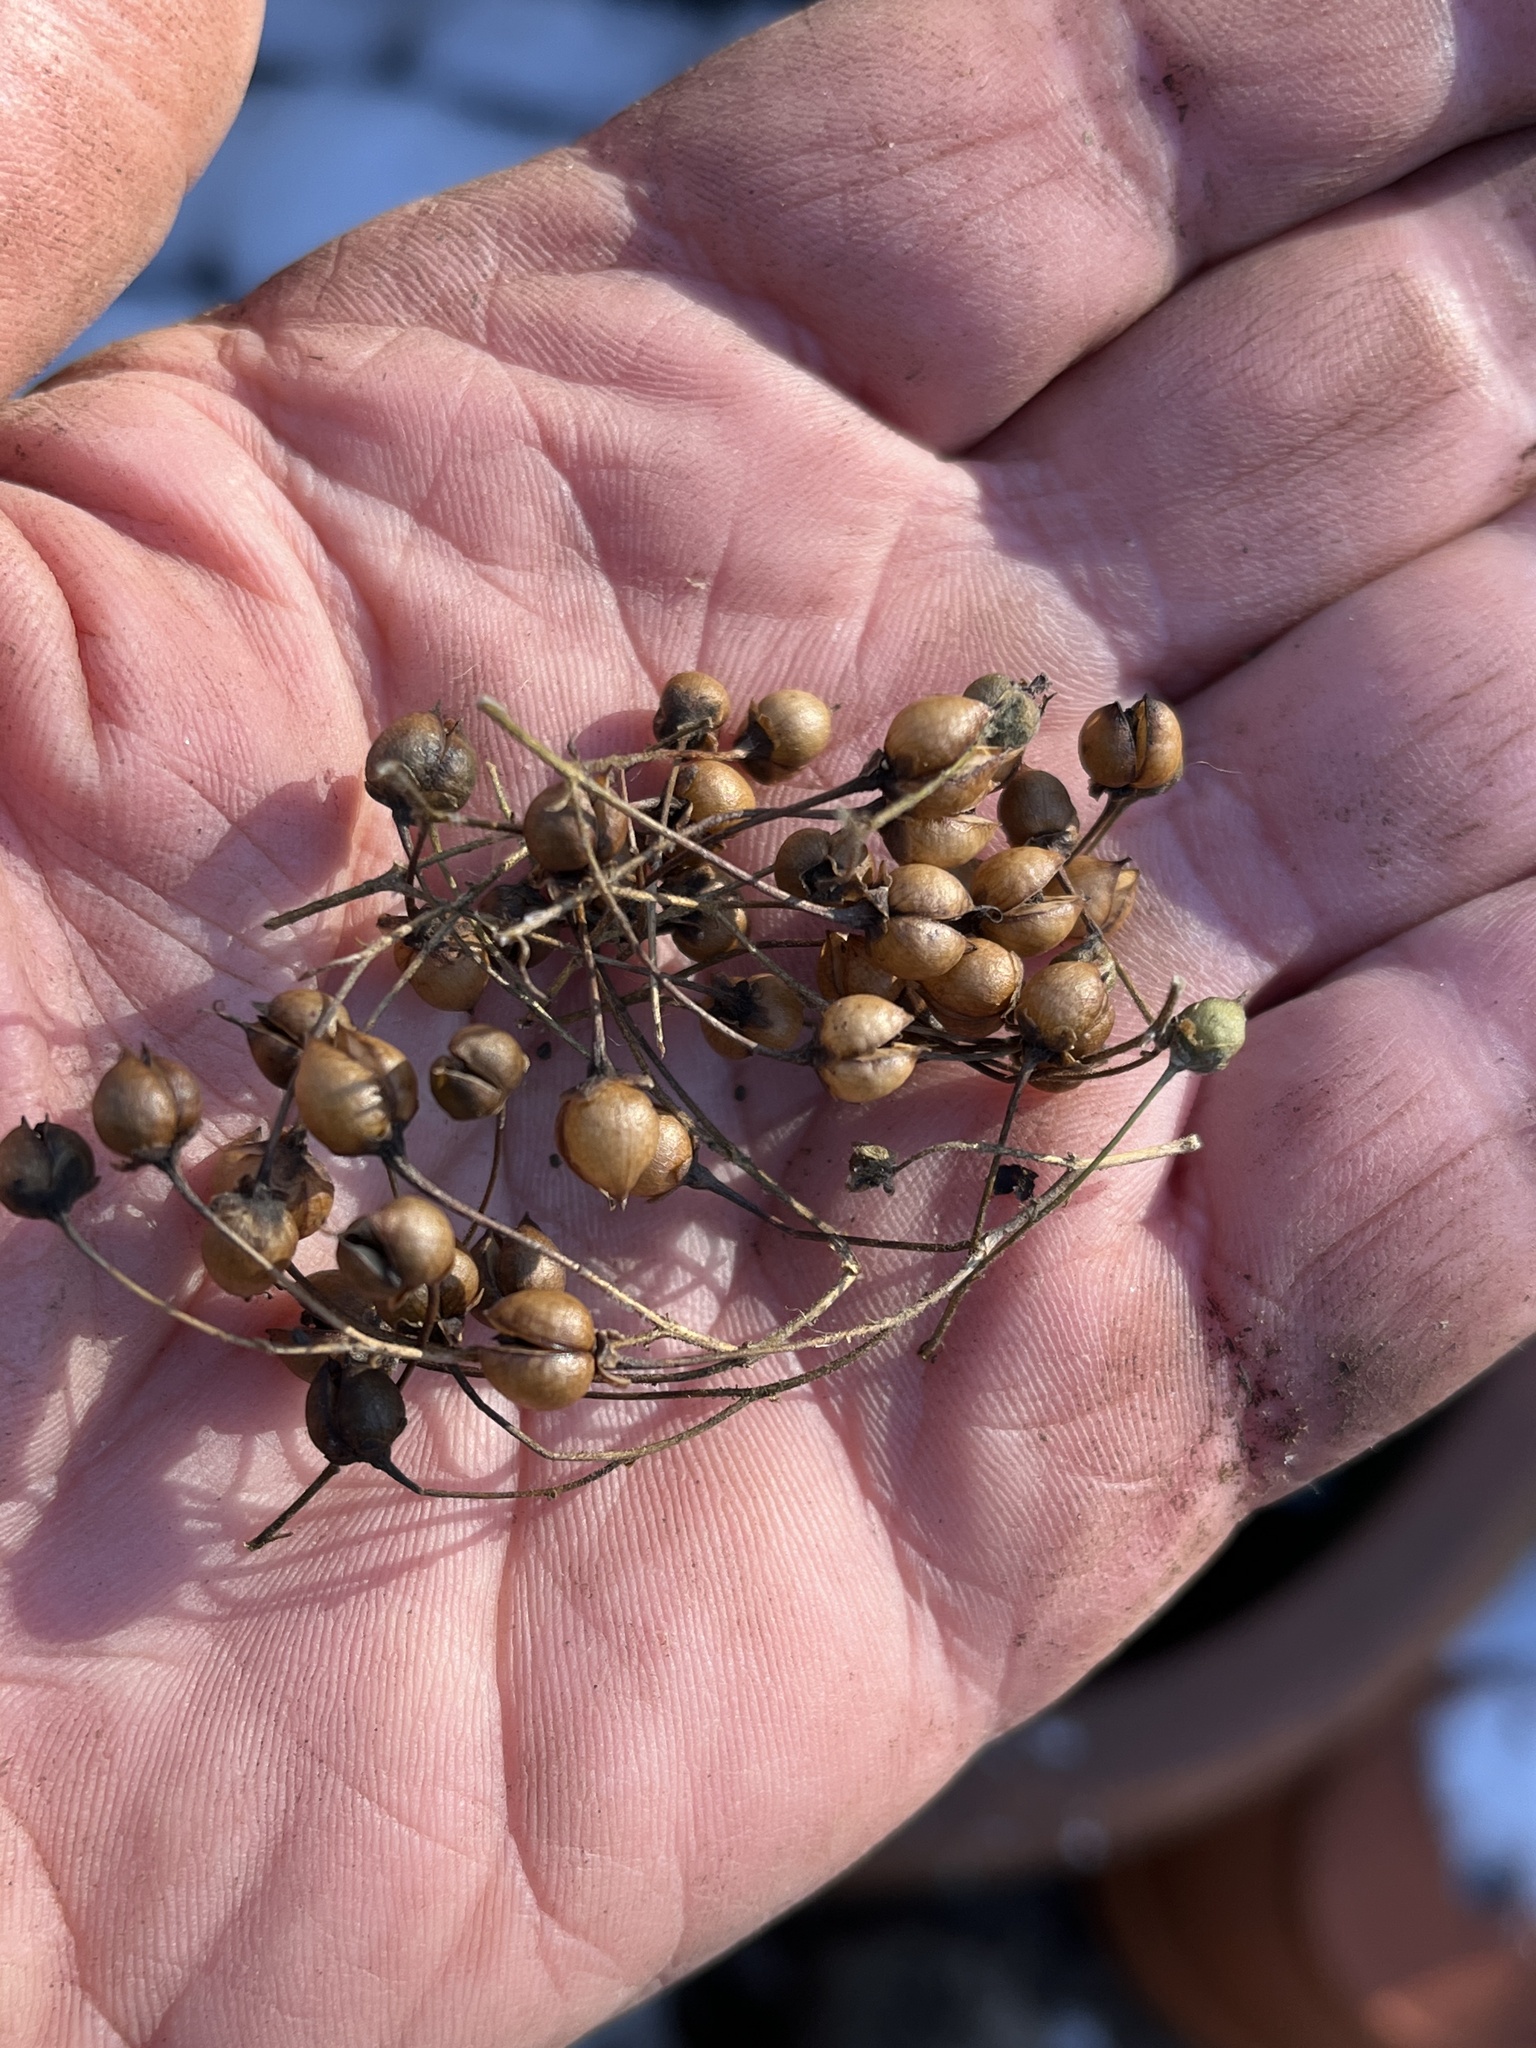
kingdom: Plantae
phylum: Tracheophyta
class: Magnoliopsida
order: Lamiales
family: Scrophulariaceae
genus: Scrophularia
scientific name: Scrophularia marilandica
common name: Eastern figwort
